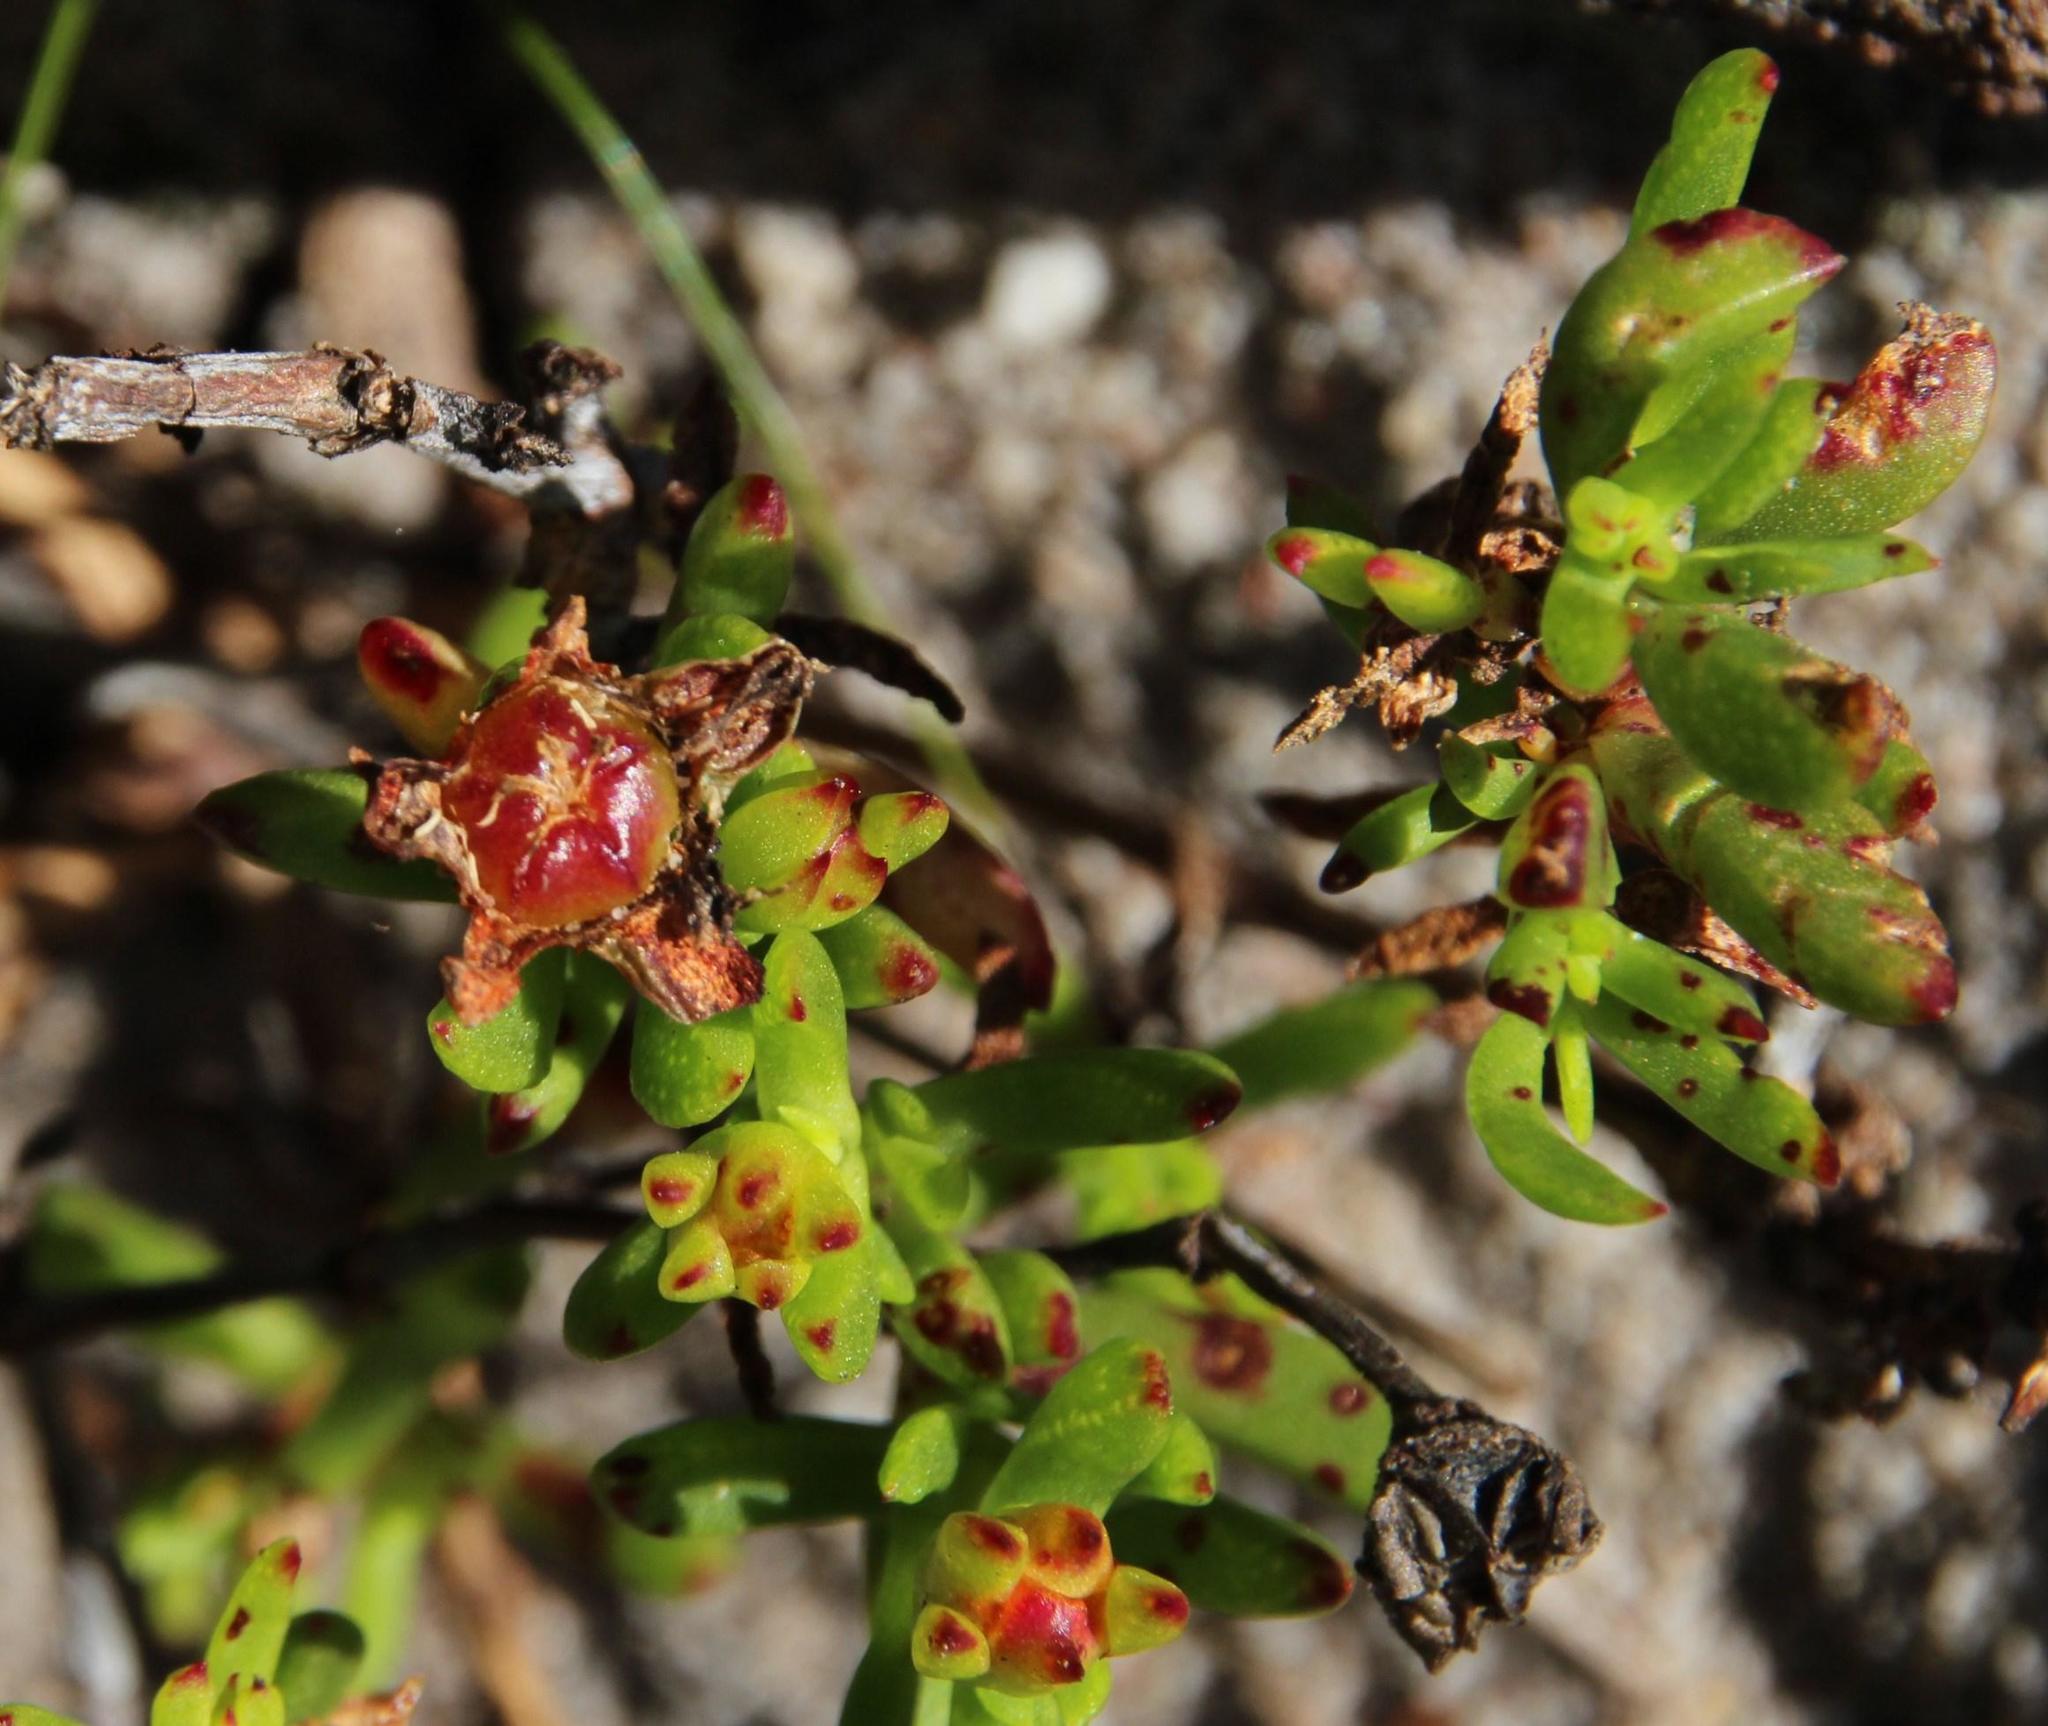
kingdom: Plantae
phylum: Tracheophyta
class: Magnoliopsida
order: Caryophyllales
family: Aizoaceae
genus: Lampranthus
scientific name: Lampranthus bicolor
